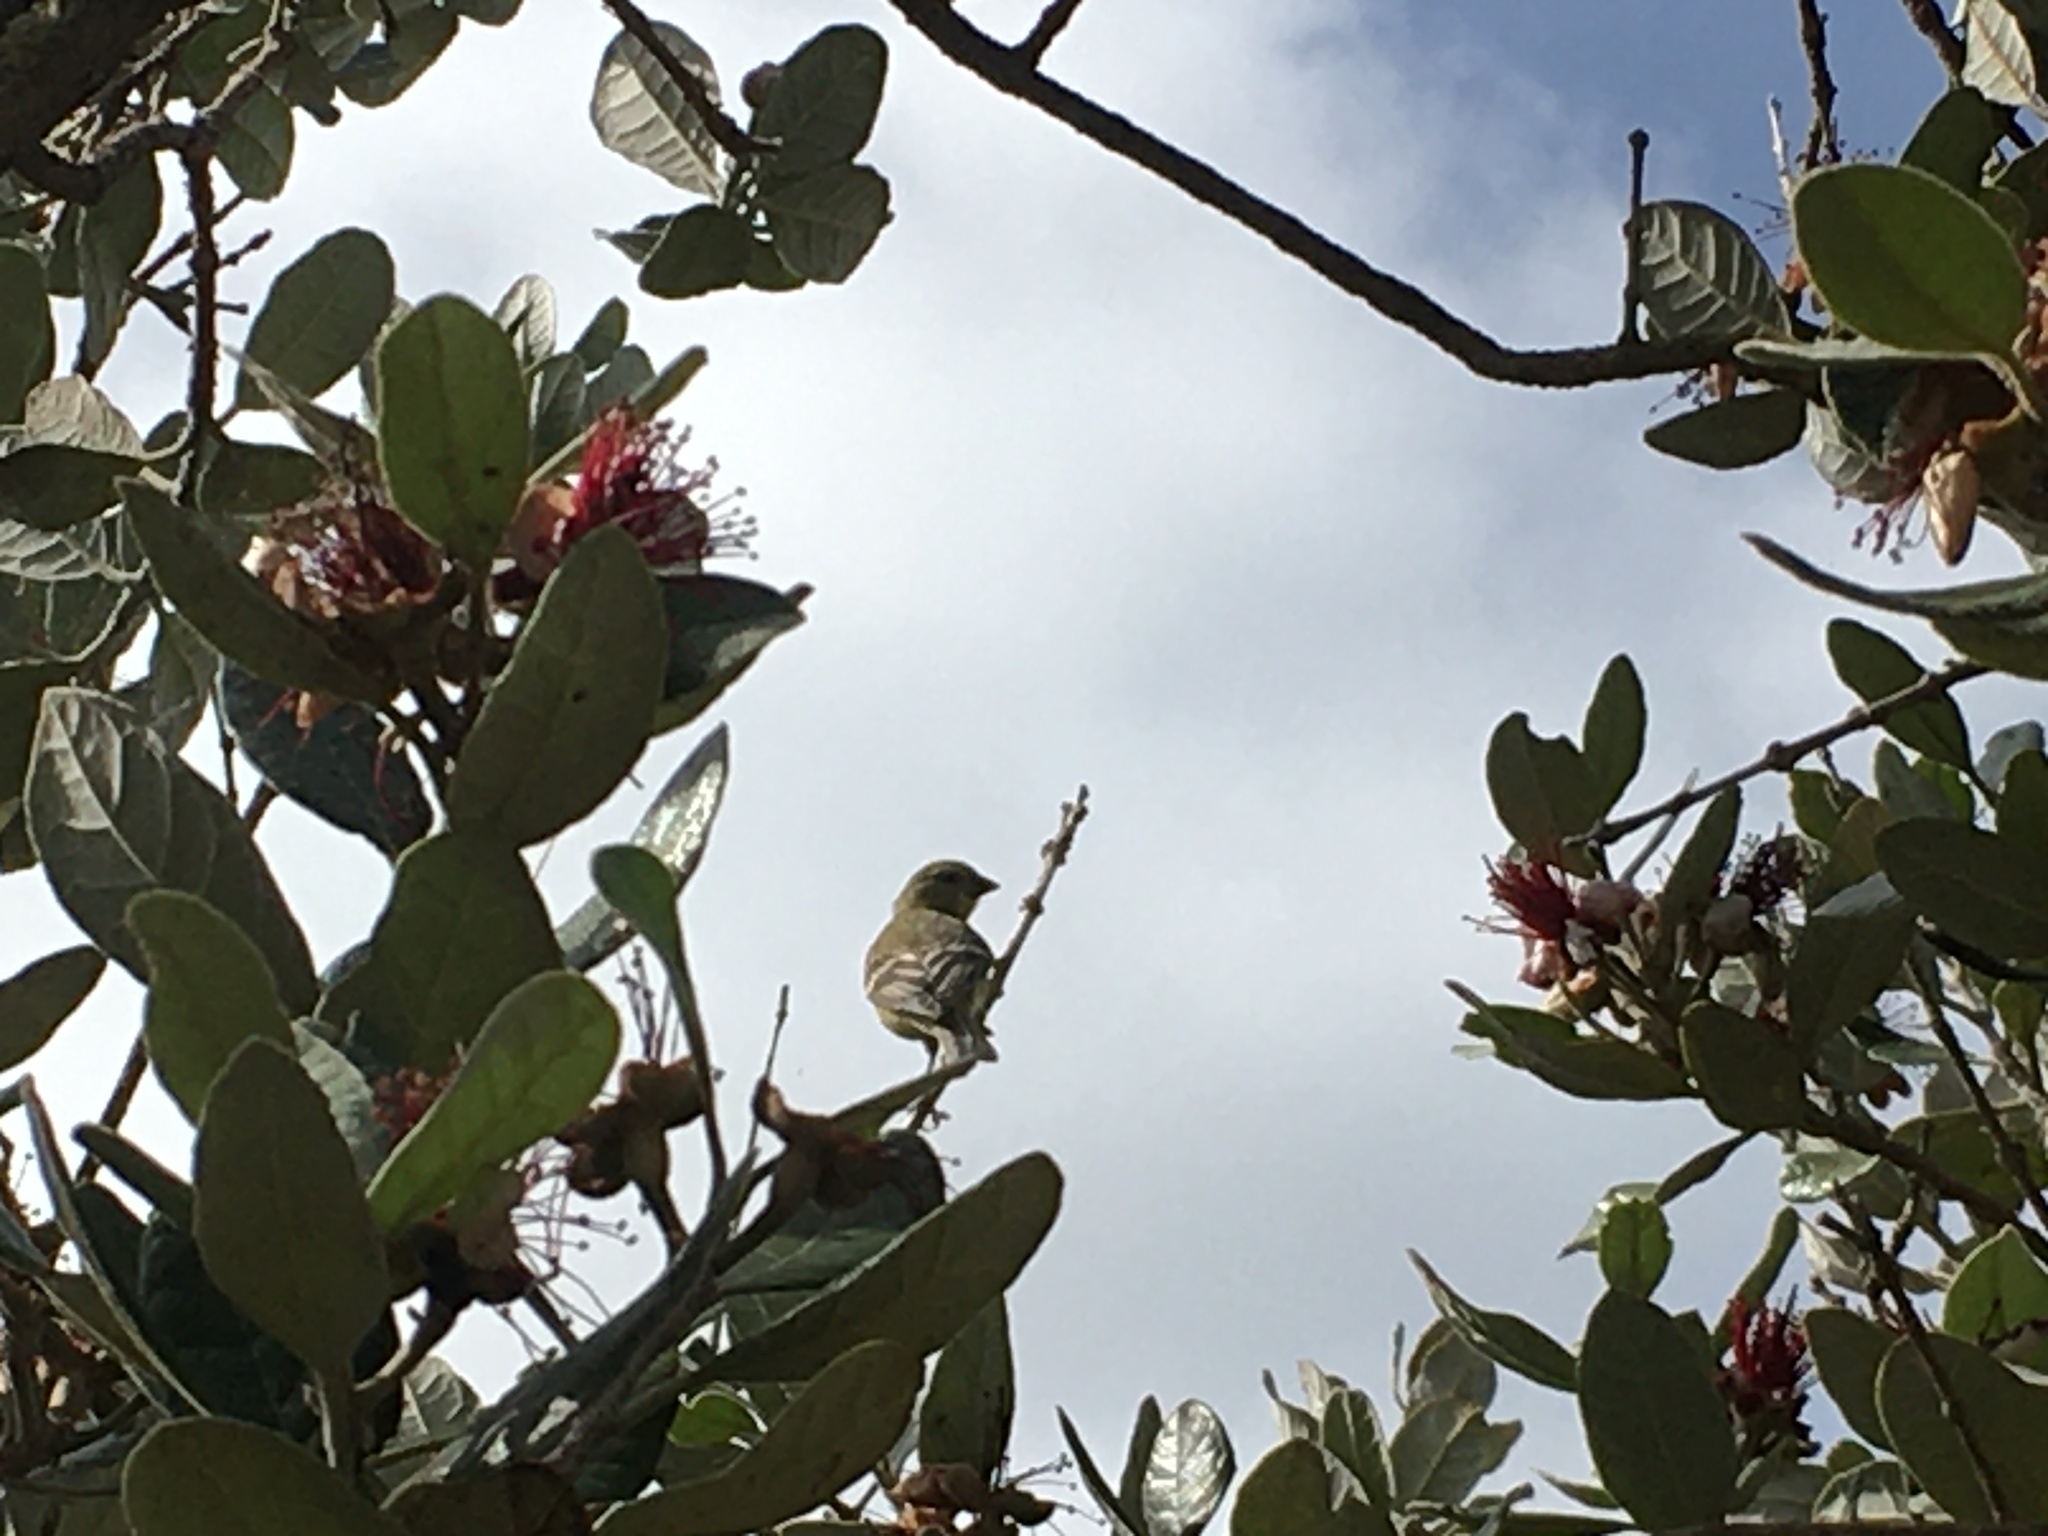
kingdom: Animalia
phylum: Chordata
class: Aves
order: Passeriformes
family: Fringillidae
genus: Spinus
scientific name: Spinus psaltria
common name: Lesser goldfinch
